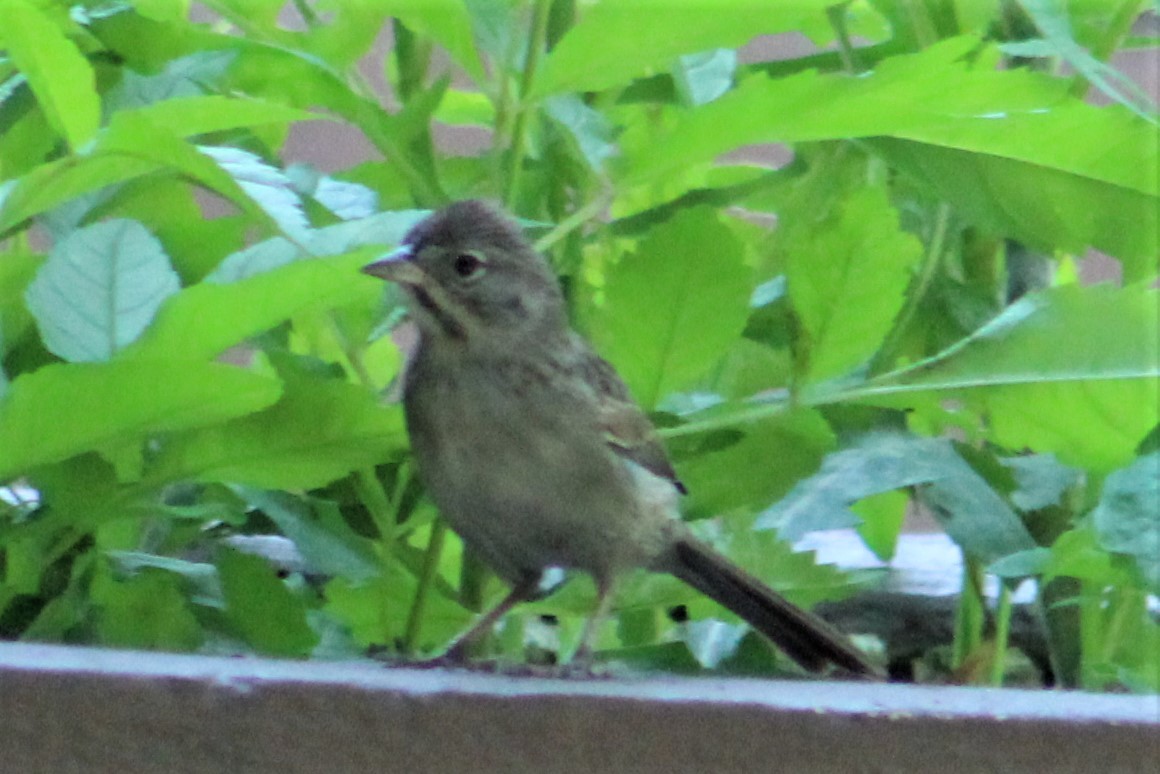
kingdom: Animalia
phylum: Chordata
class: Aves
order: Passeriformes
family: Passerellidae
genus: Aimophila
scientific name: Aimophila ruficeps
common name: Rufous-crowned sparrow
